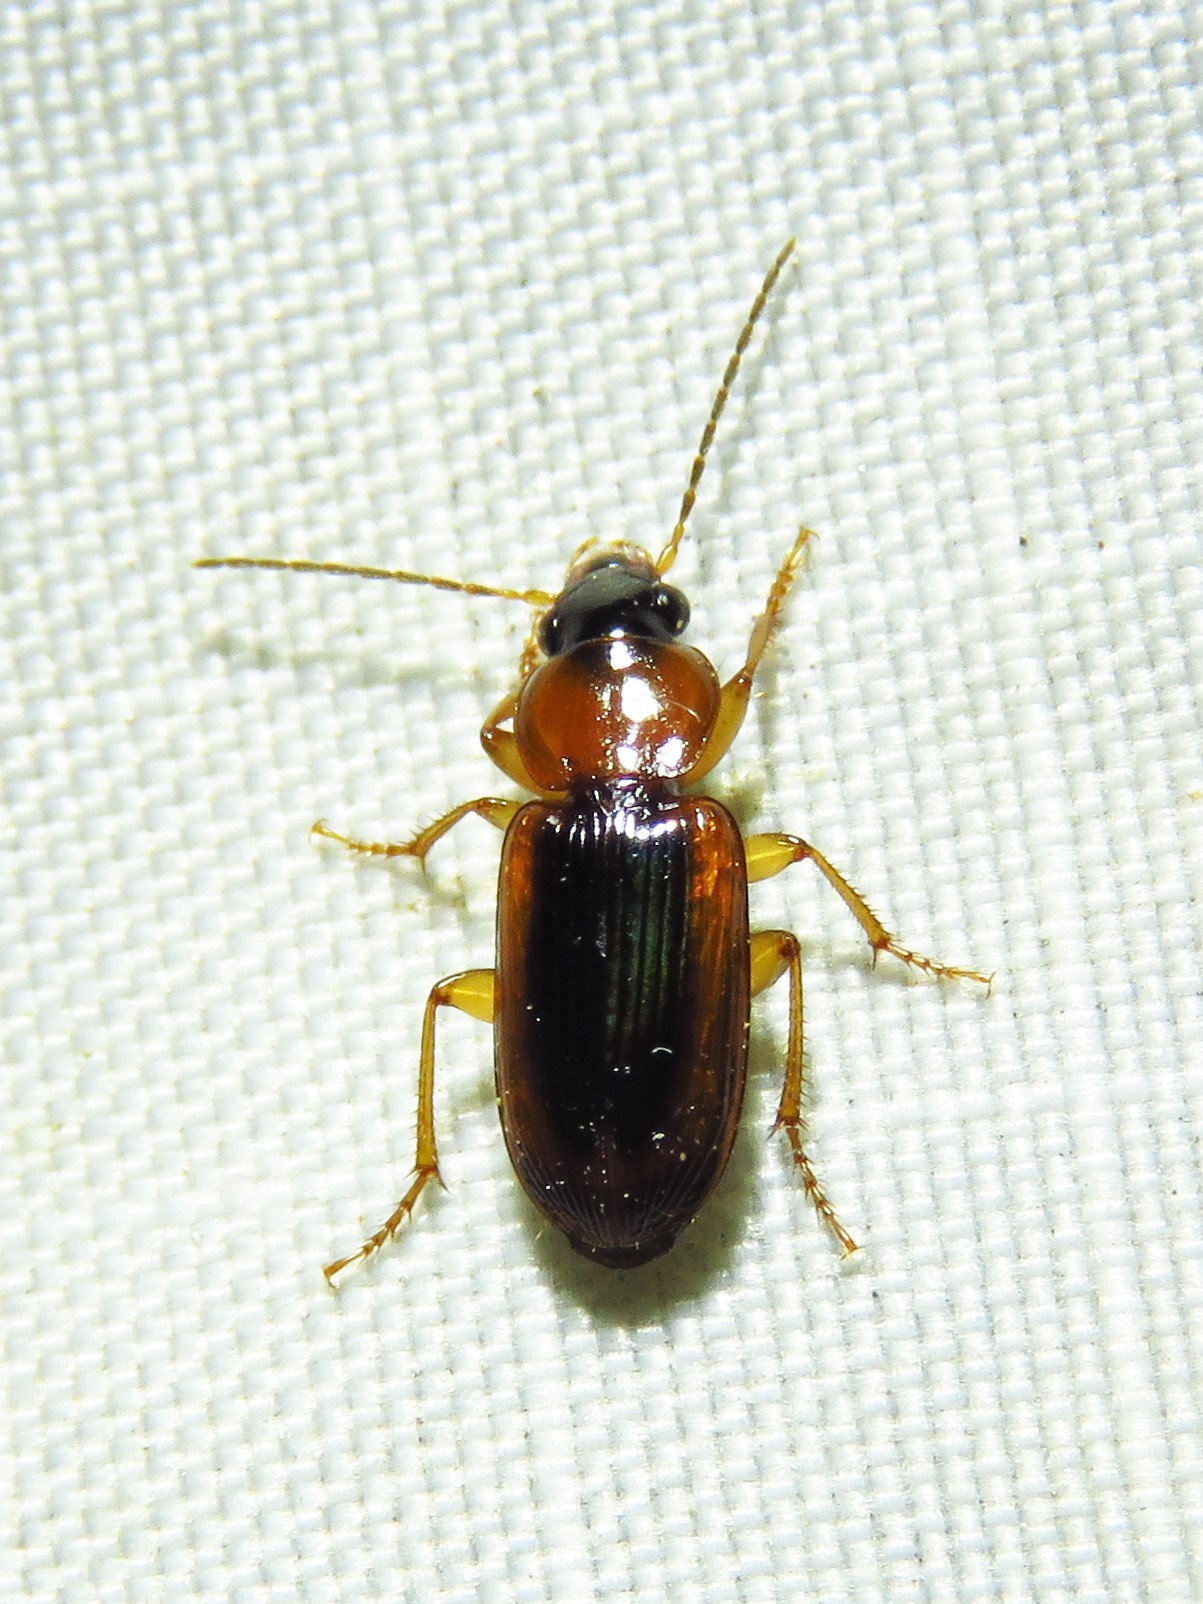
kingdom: Animalia
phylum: Arthropoda
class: Insecta
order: Coleoptera
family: Carabidae
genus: Stenolophus
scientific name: Stenolophus dissimilis
